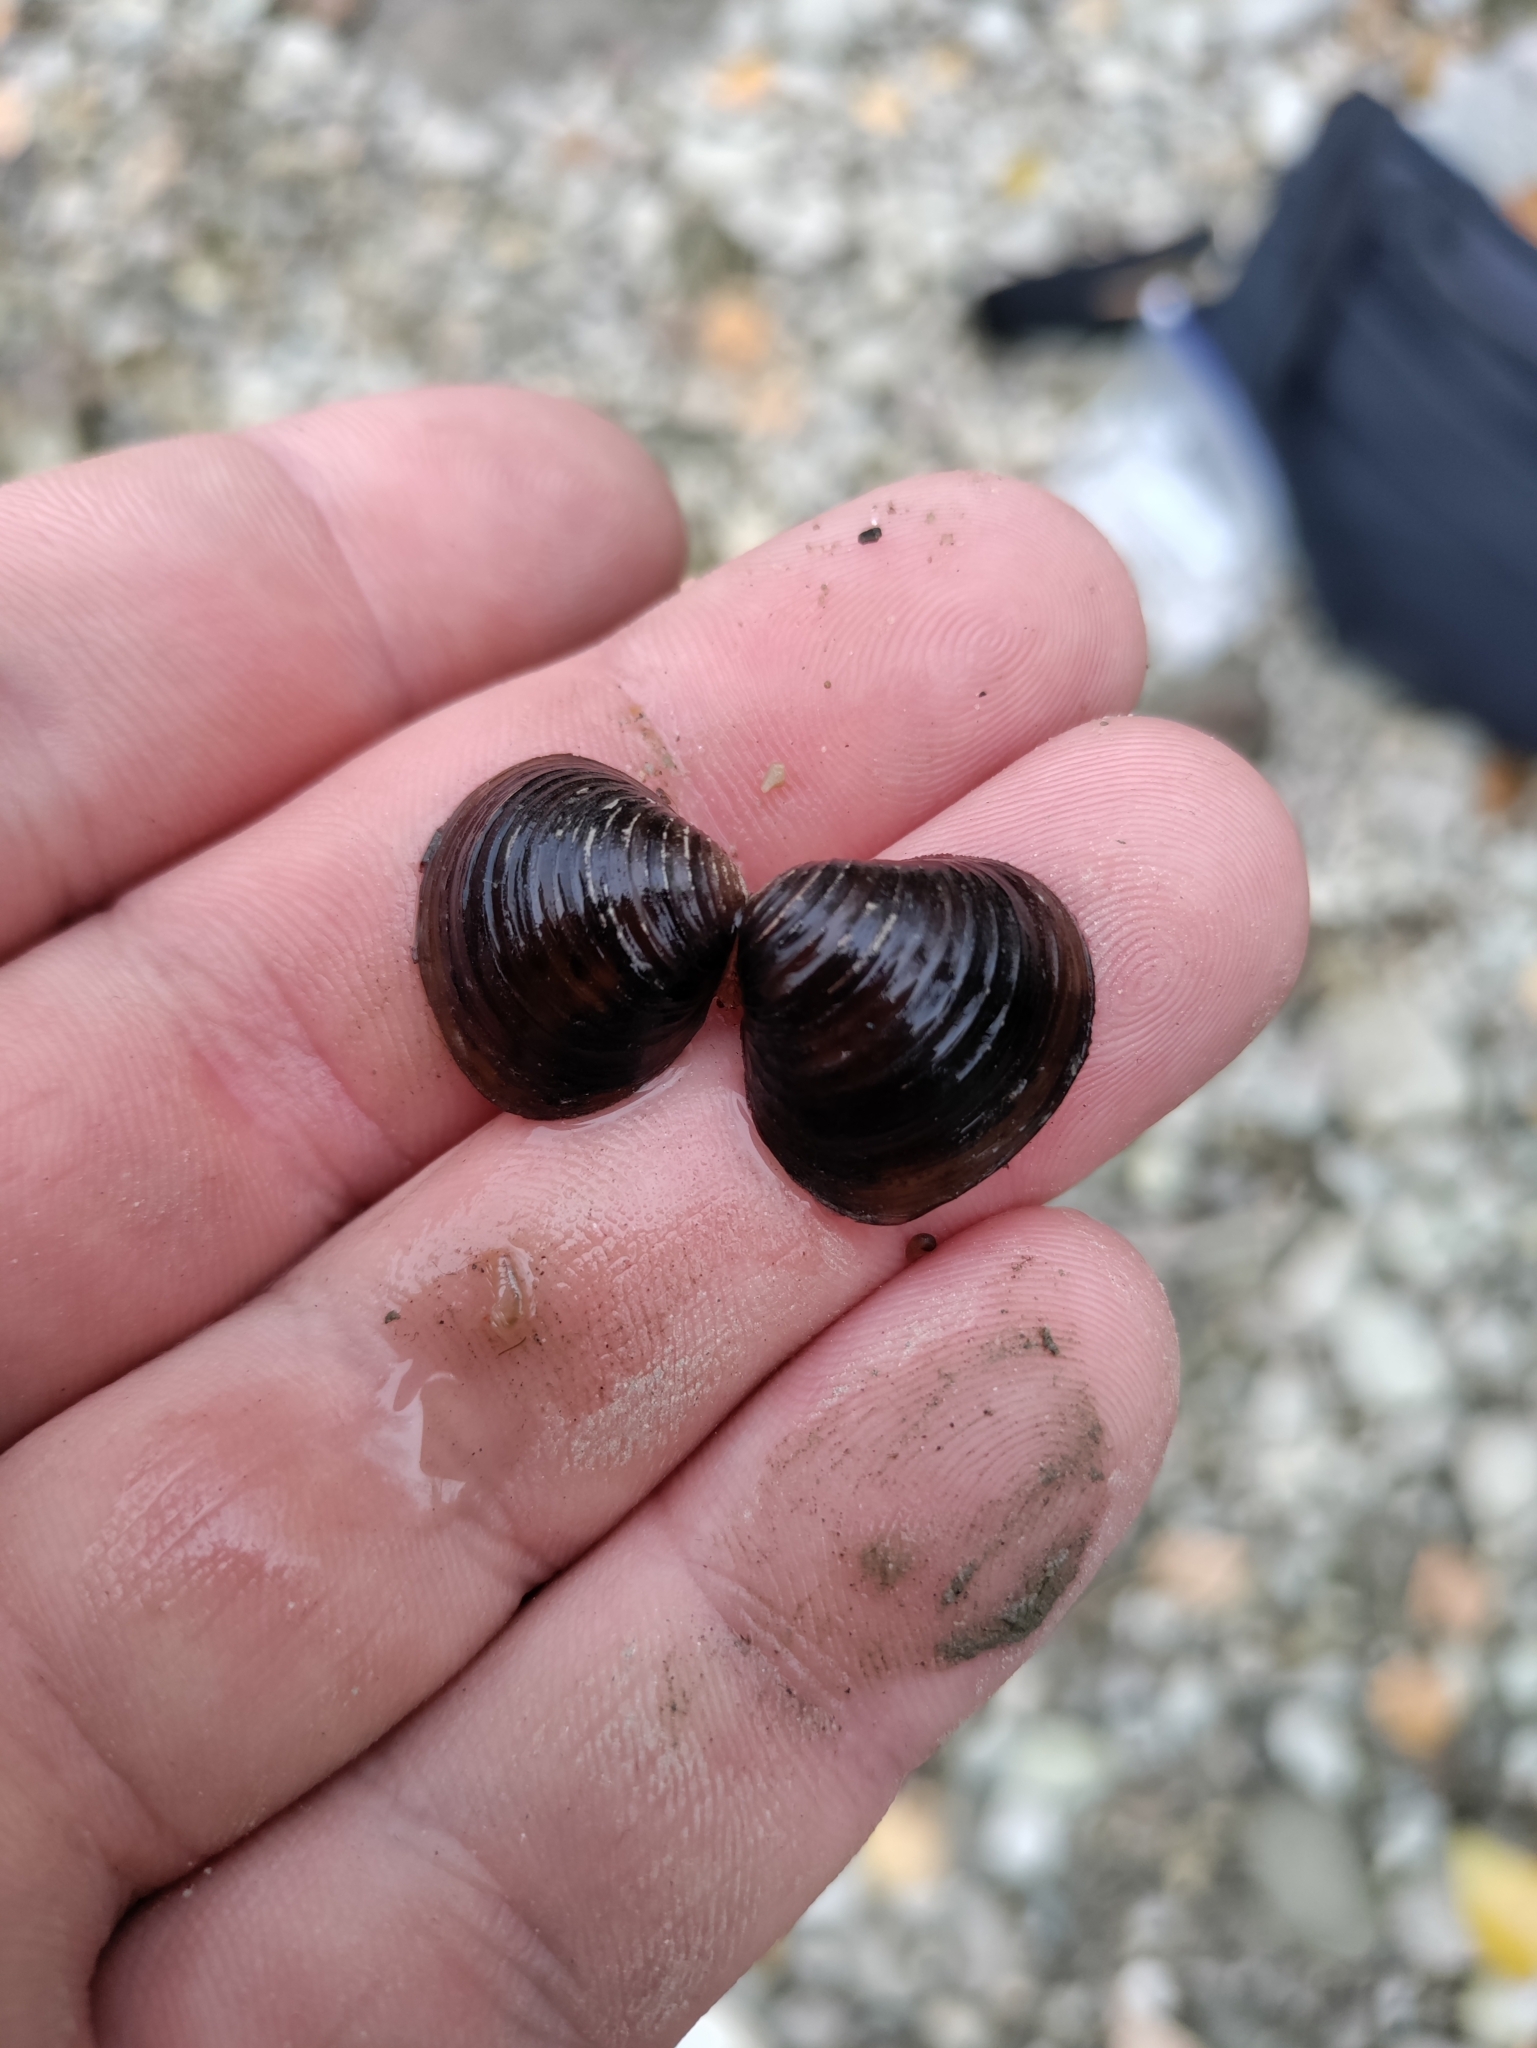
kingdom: Animalia
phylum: Mollusca
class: Bivalvia
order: Venerida
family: Cyrenidae
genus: Corbicula
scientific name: Corbicula fluminea
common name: Asian clam
